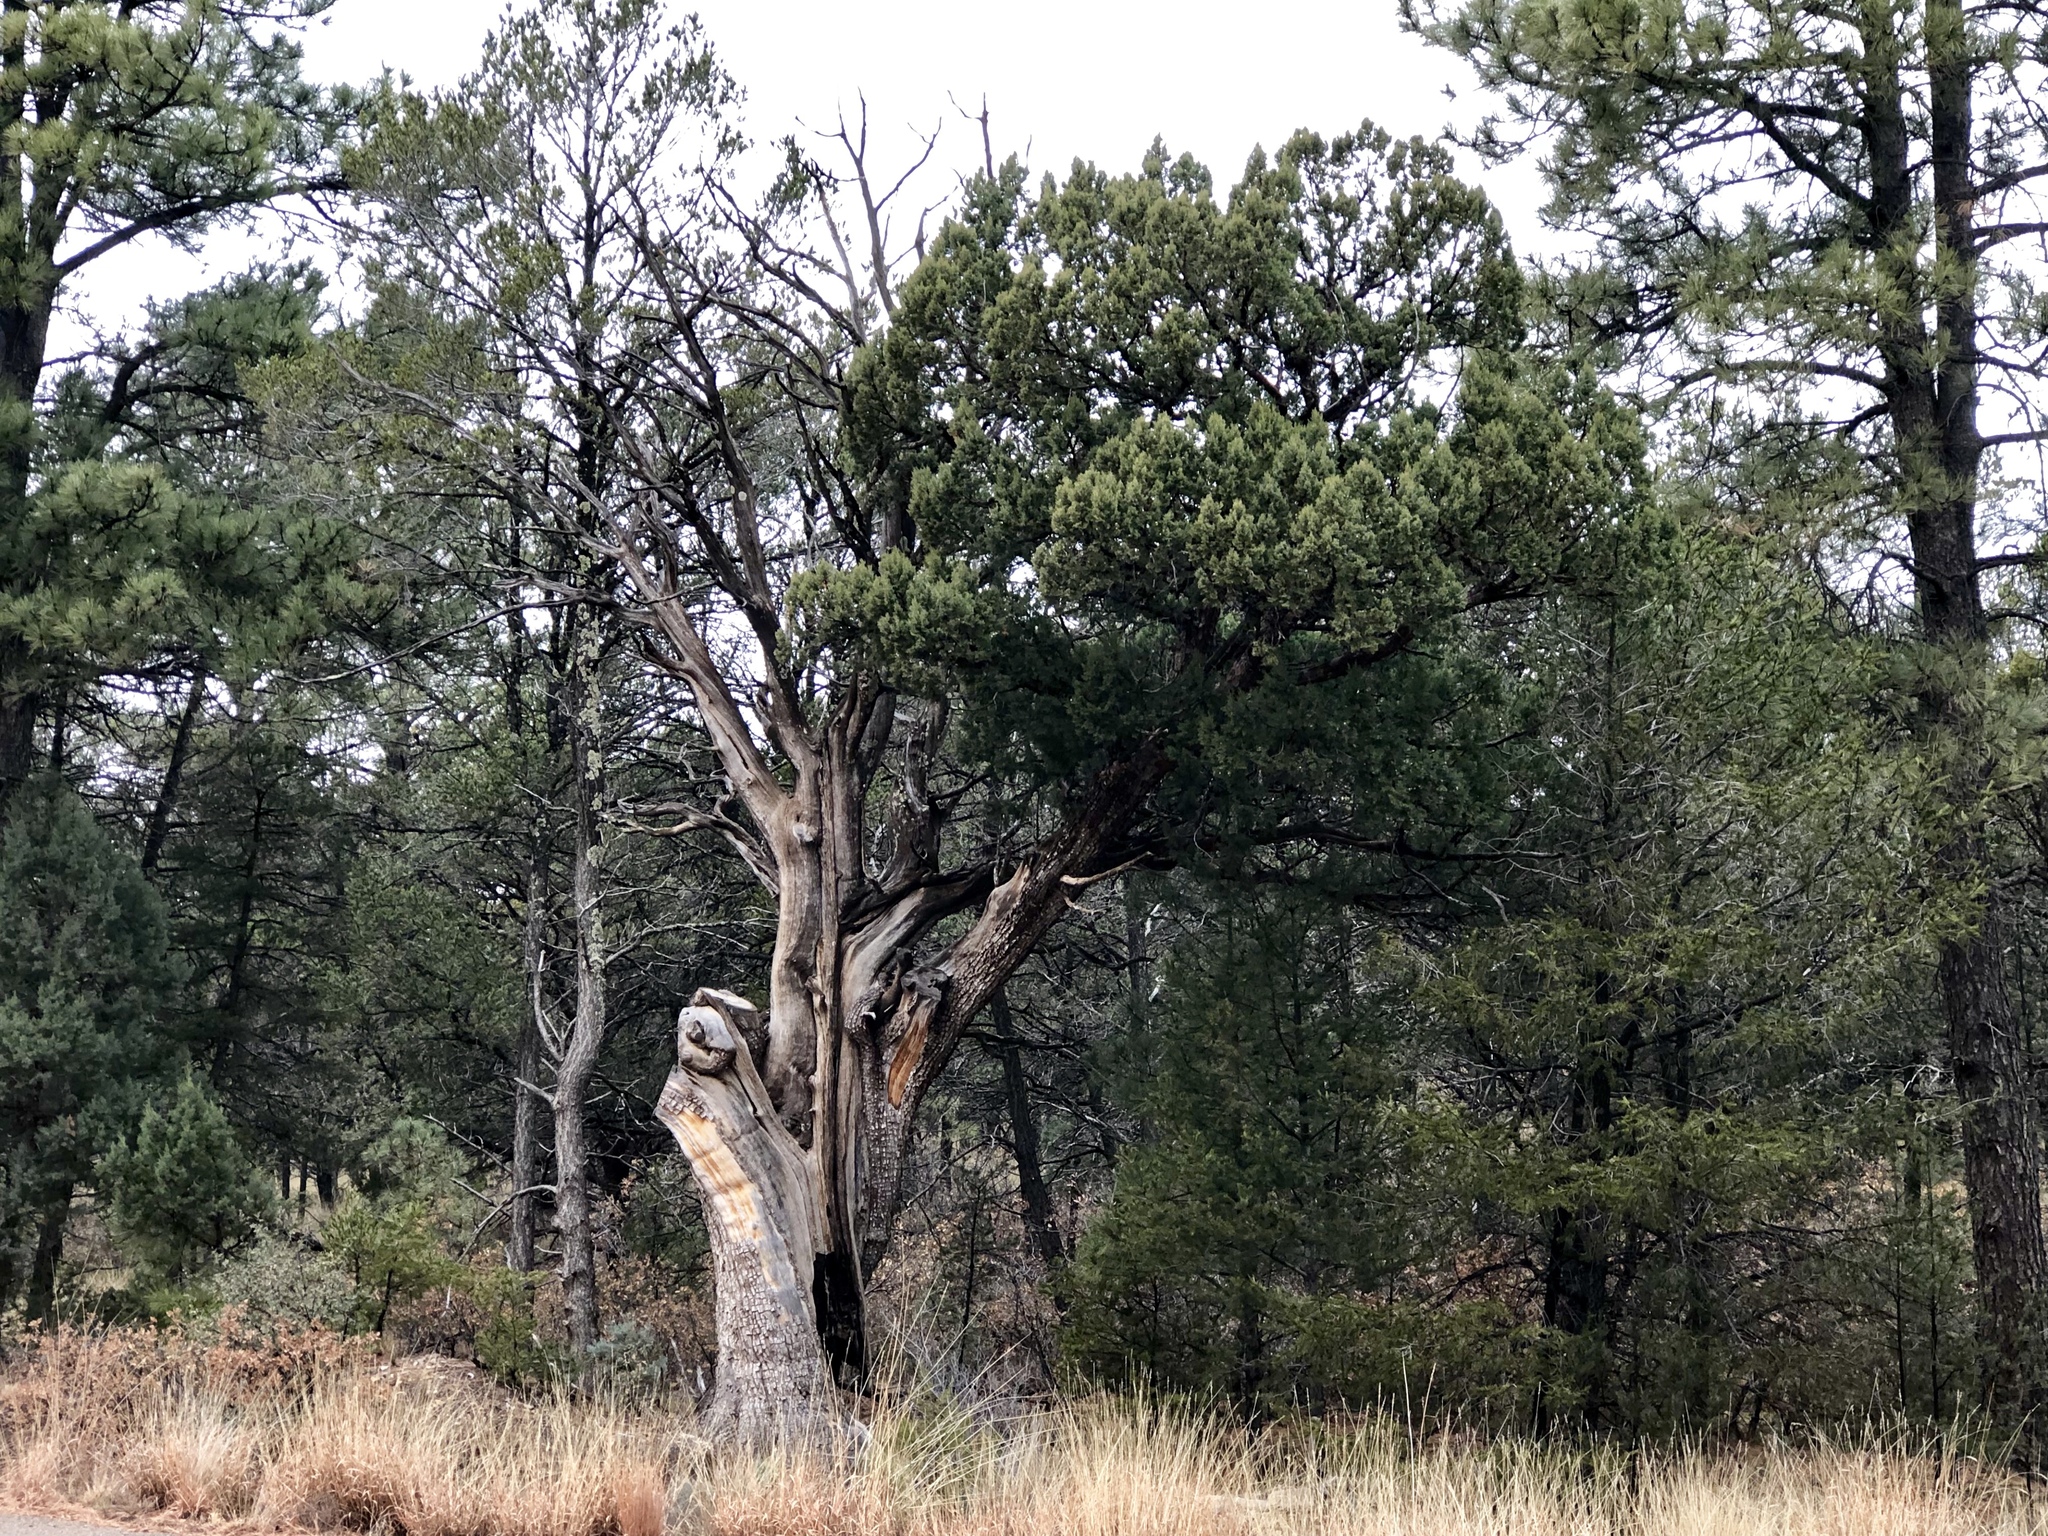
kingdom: Plantae
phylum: Tracheophyta
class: Pinopsida
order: Pinales
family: Cupressaceae
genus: Juniperus
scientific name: Juniperus deppeana
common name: Alligator juniper
